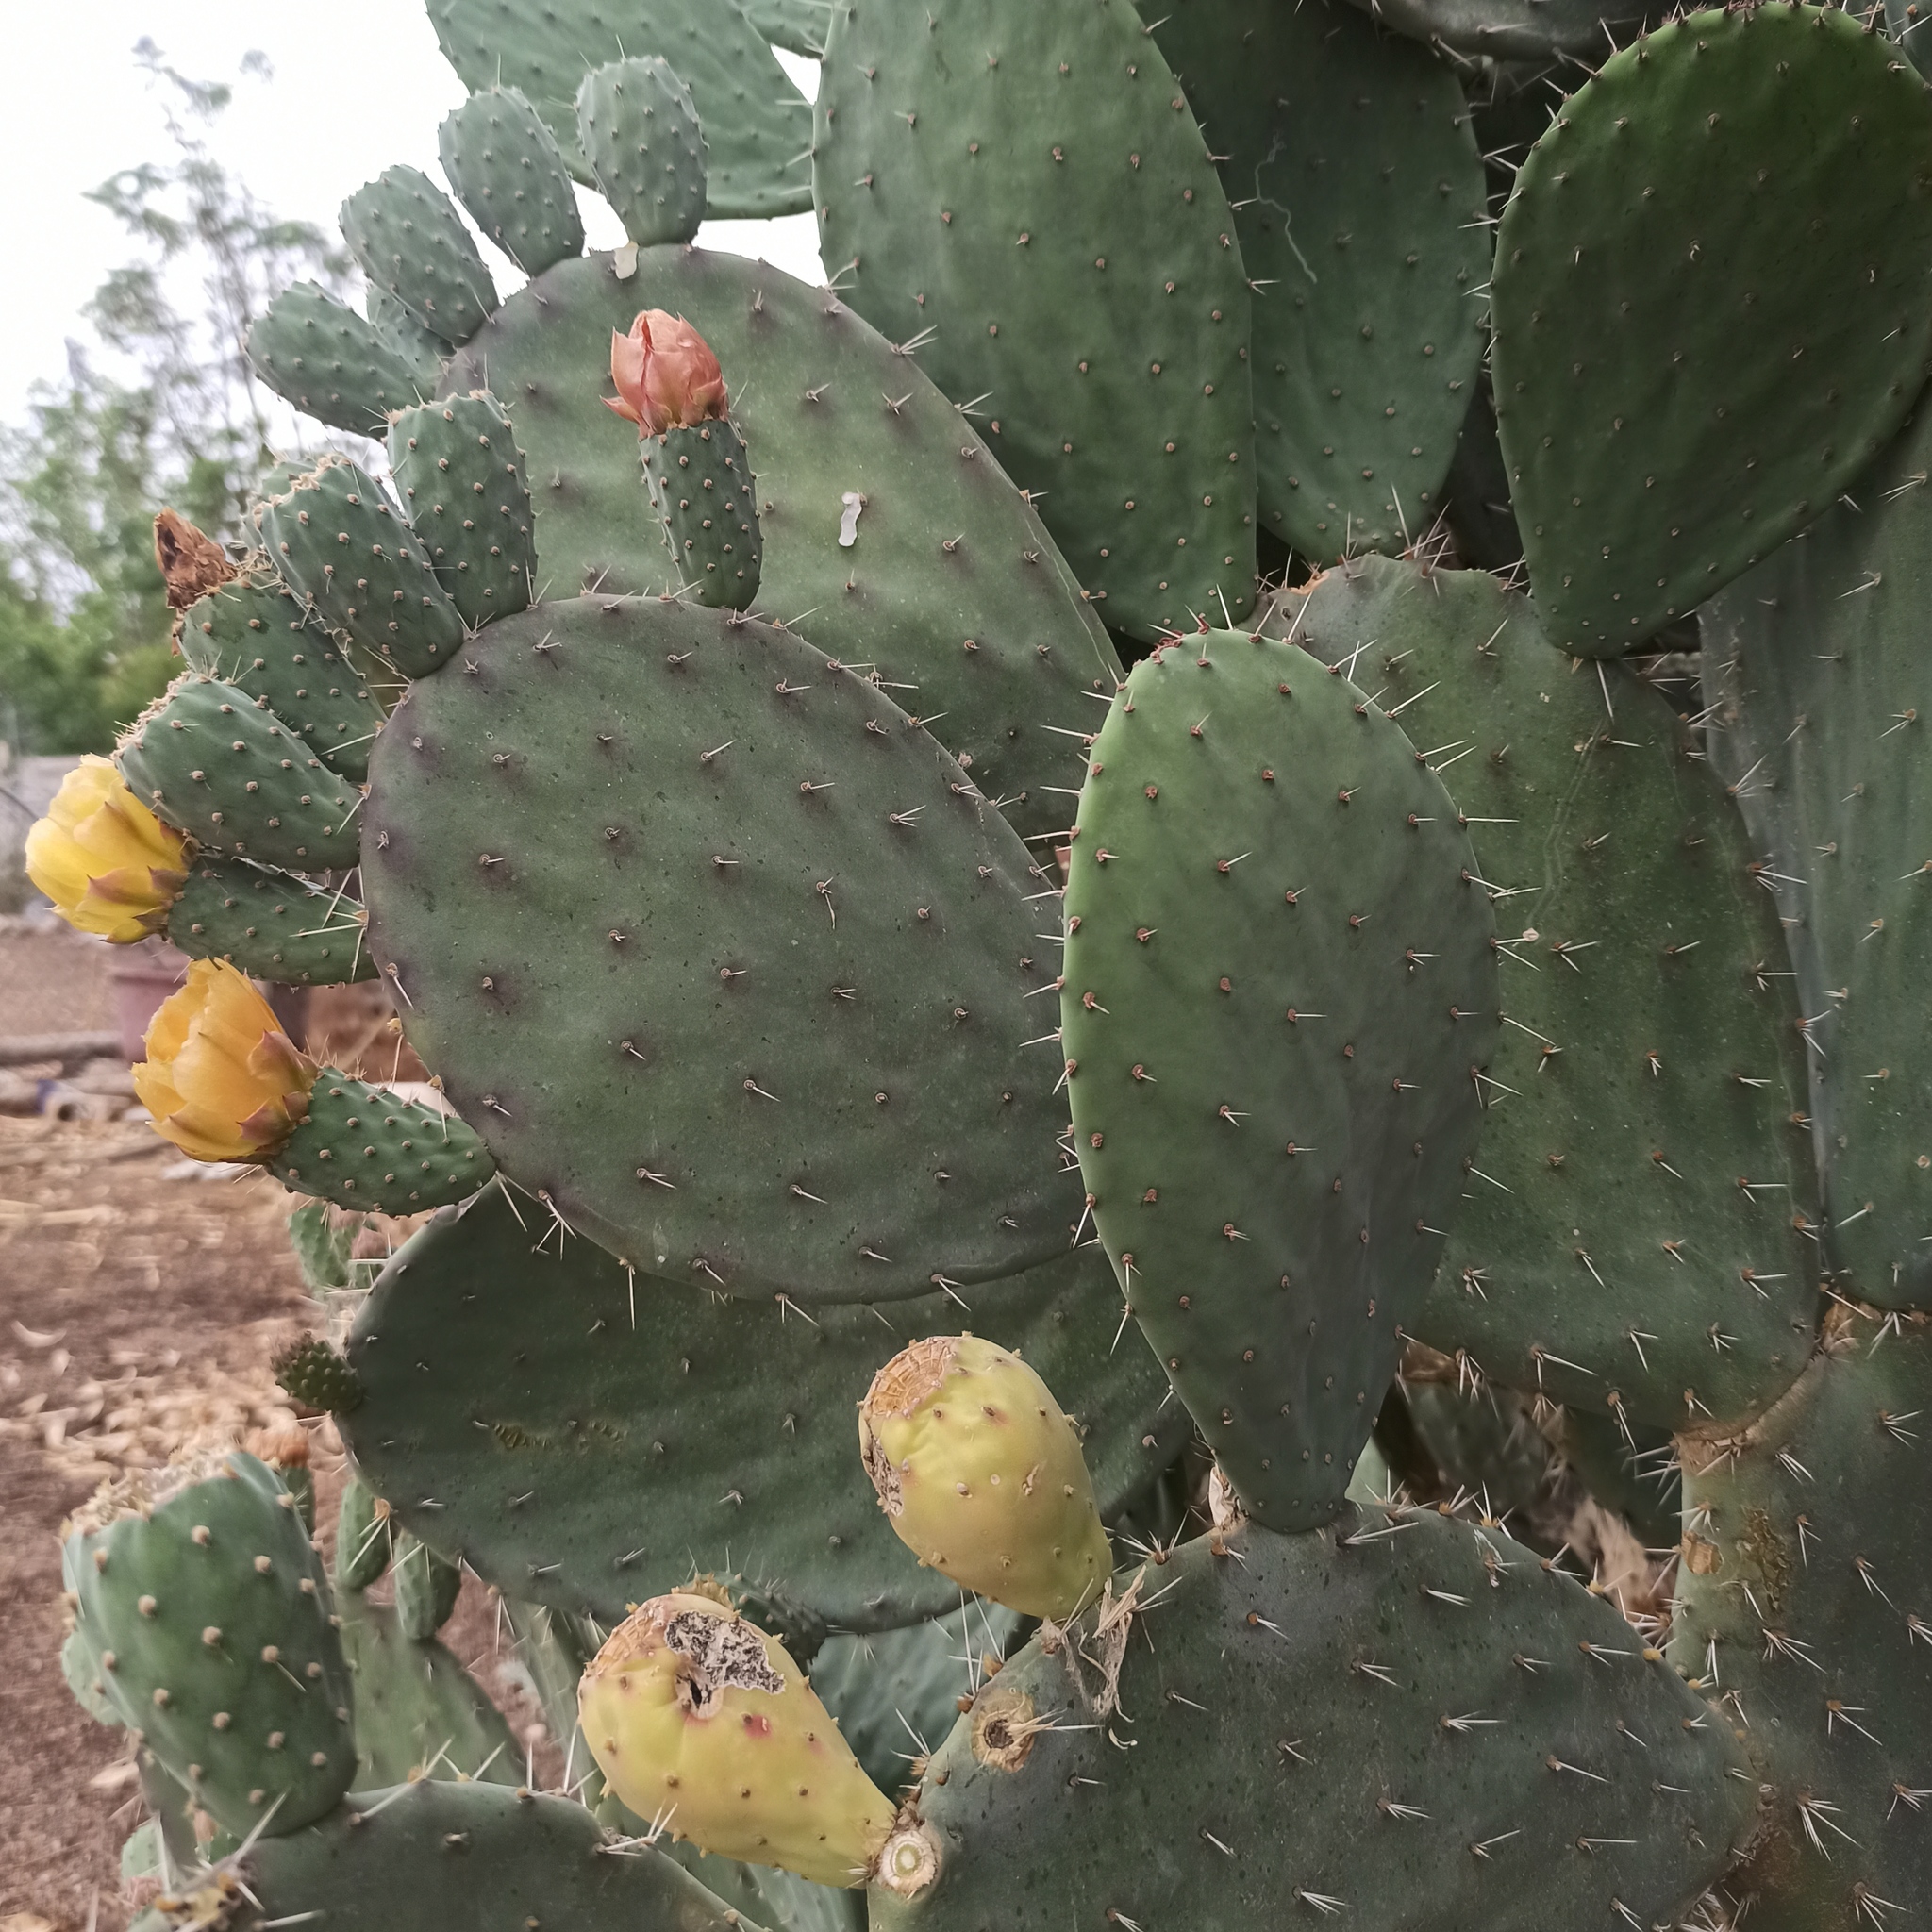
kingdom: Plantae
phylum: Tracheophyta
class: Magnoliopsida
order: Caryophyllales
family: Cactaceae
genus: Opuntia
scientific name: Opuntia lasiacantha
